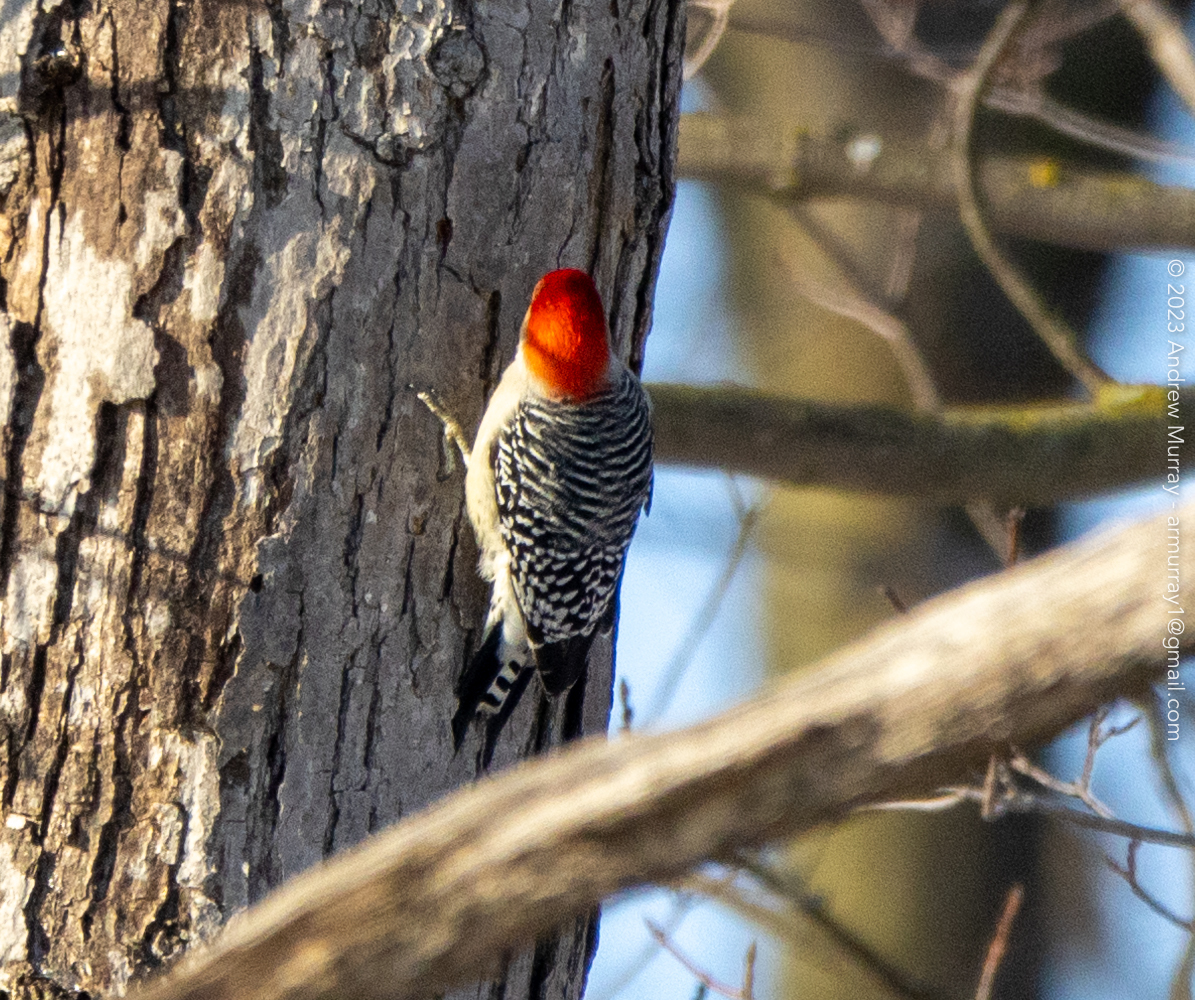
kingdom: Animalia
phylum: Chordata
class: Aves
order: Piciformes
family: Picidae
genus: Melanerpes
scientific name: Melanerpes carolinus
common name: Red-bellied woodpecker
